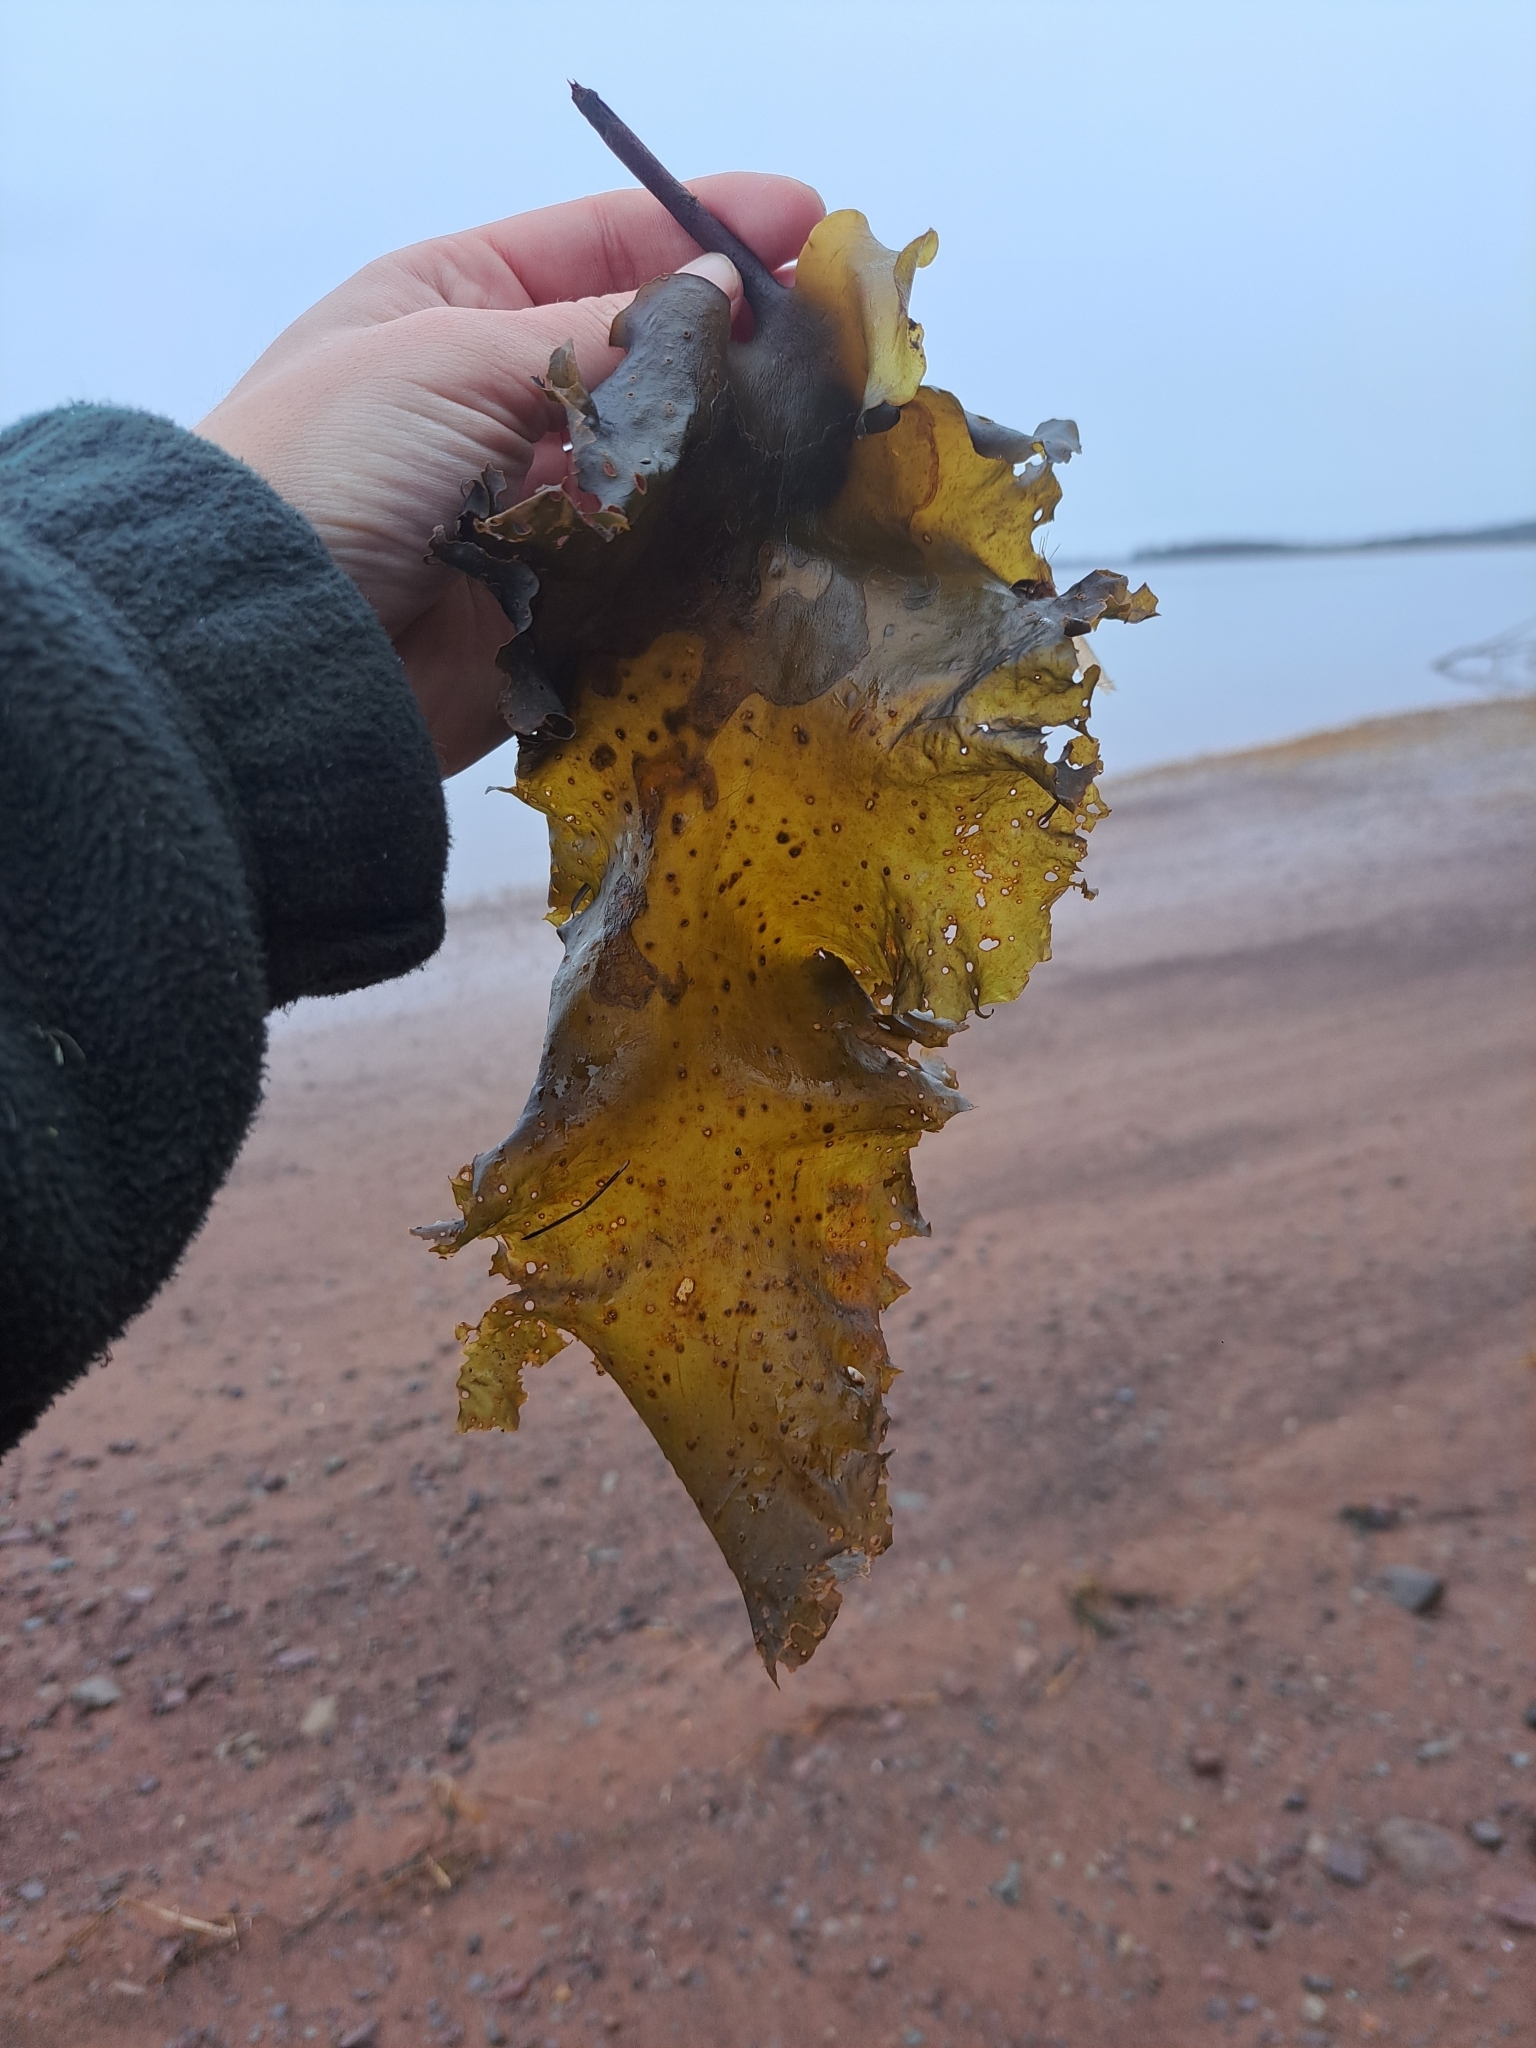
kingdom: Chromista
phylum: Ochrophyta
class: Phaeophyceae
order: Laminariales
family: Costariaceae
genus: Agarum
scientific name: Agarum clathratum
